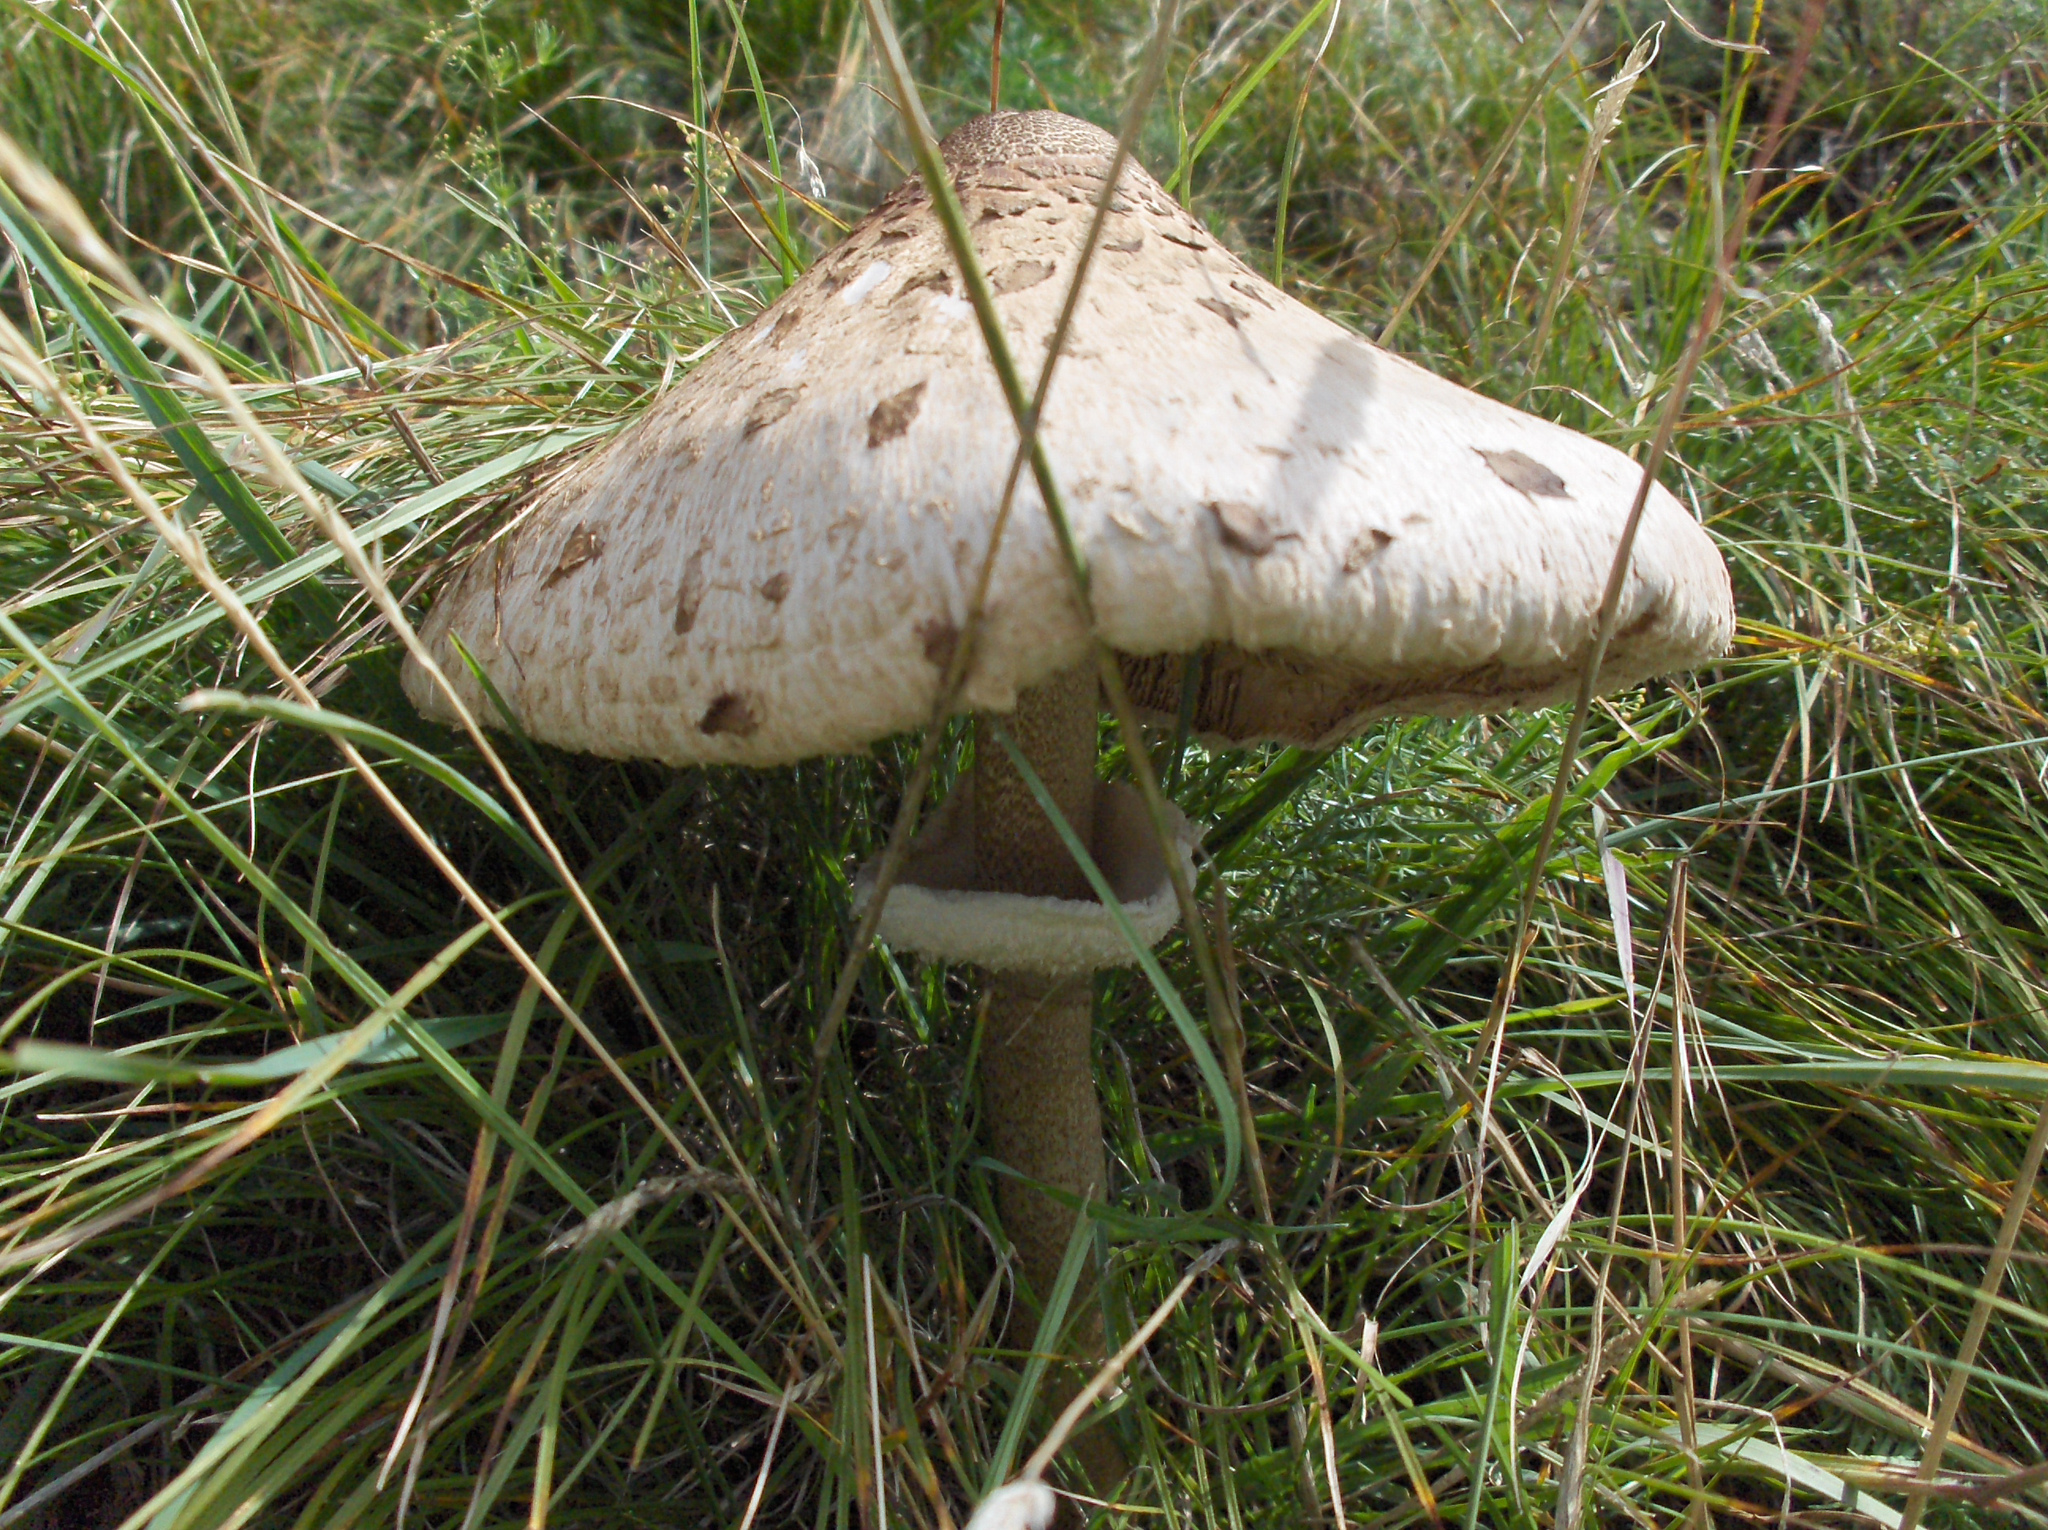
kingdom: Fungi
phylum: Basidiomycota
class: Agaricomycetes
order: Agaricales
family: Agaricaceae
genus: Macrolepiota
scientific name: Macrolepiota procera
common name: Parasol
